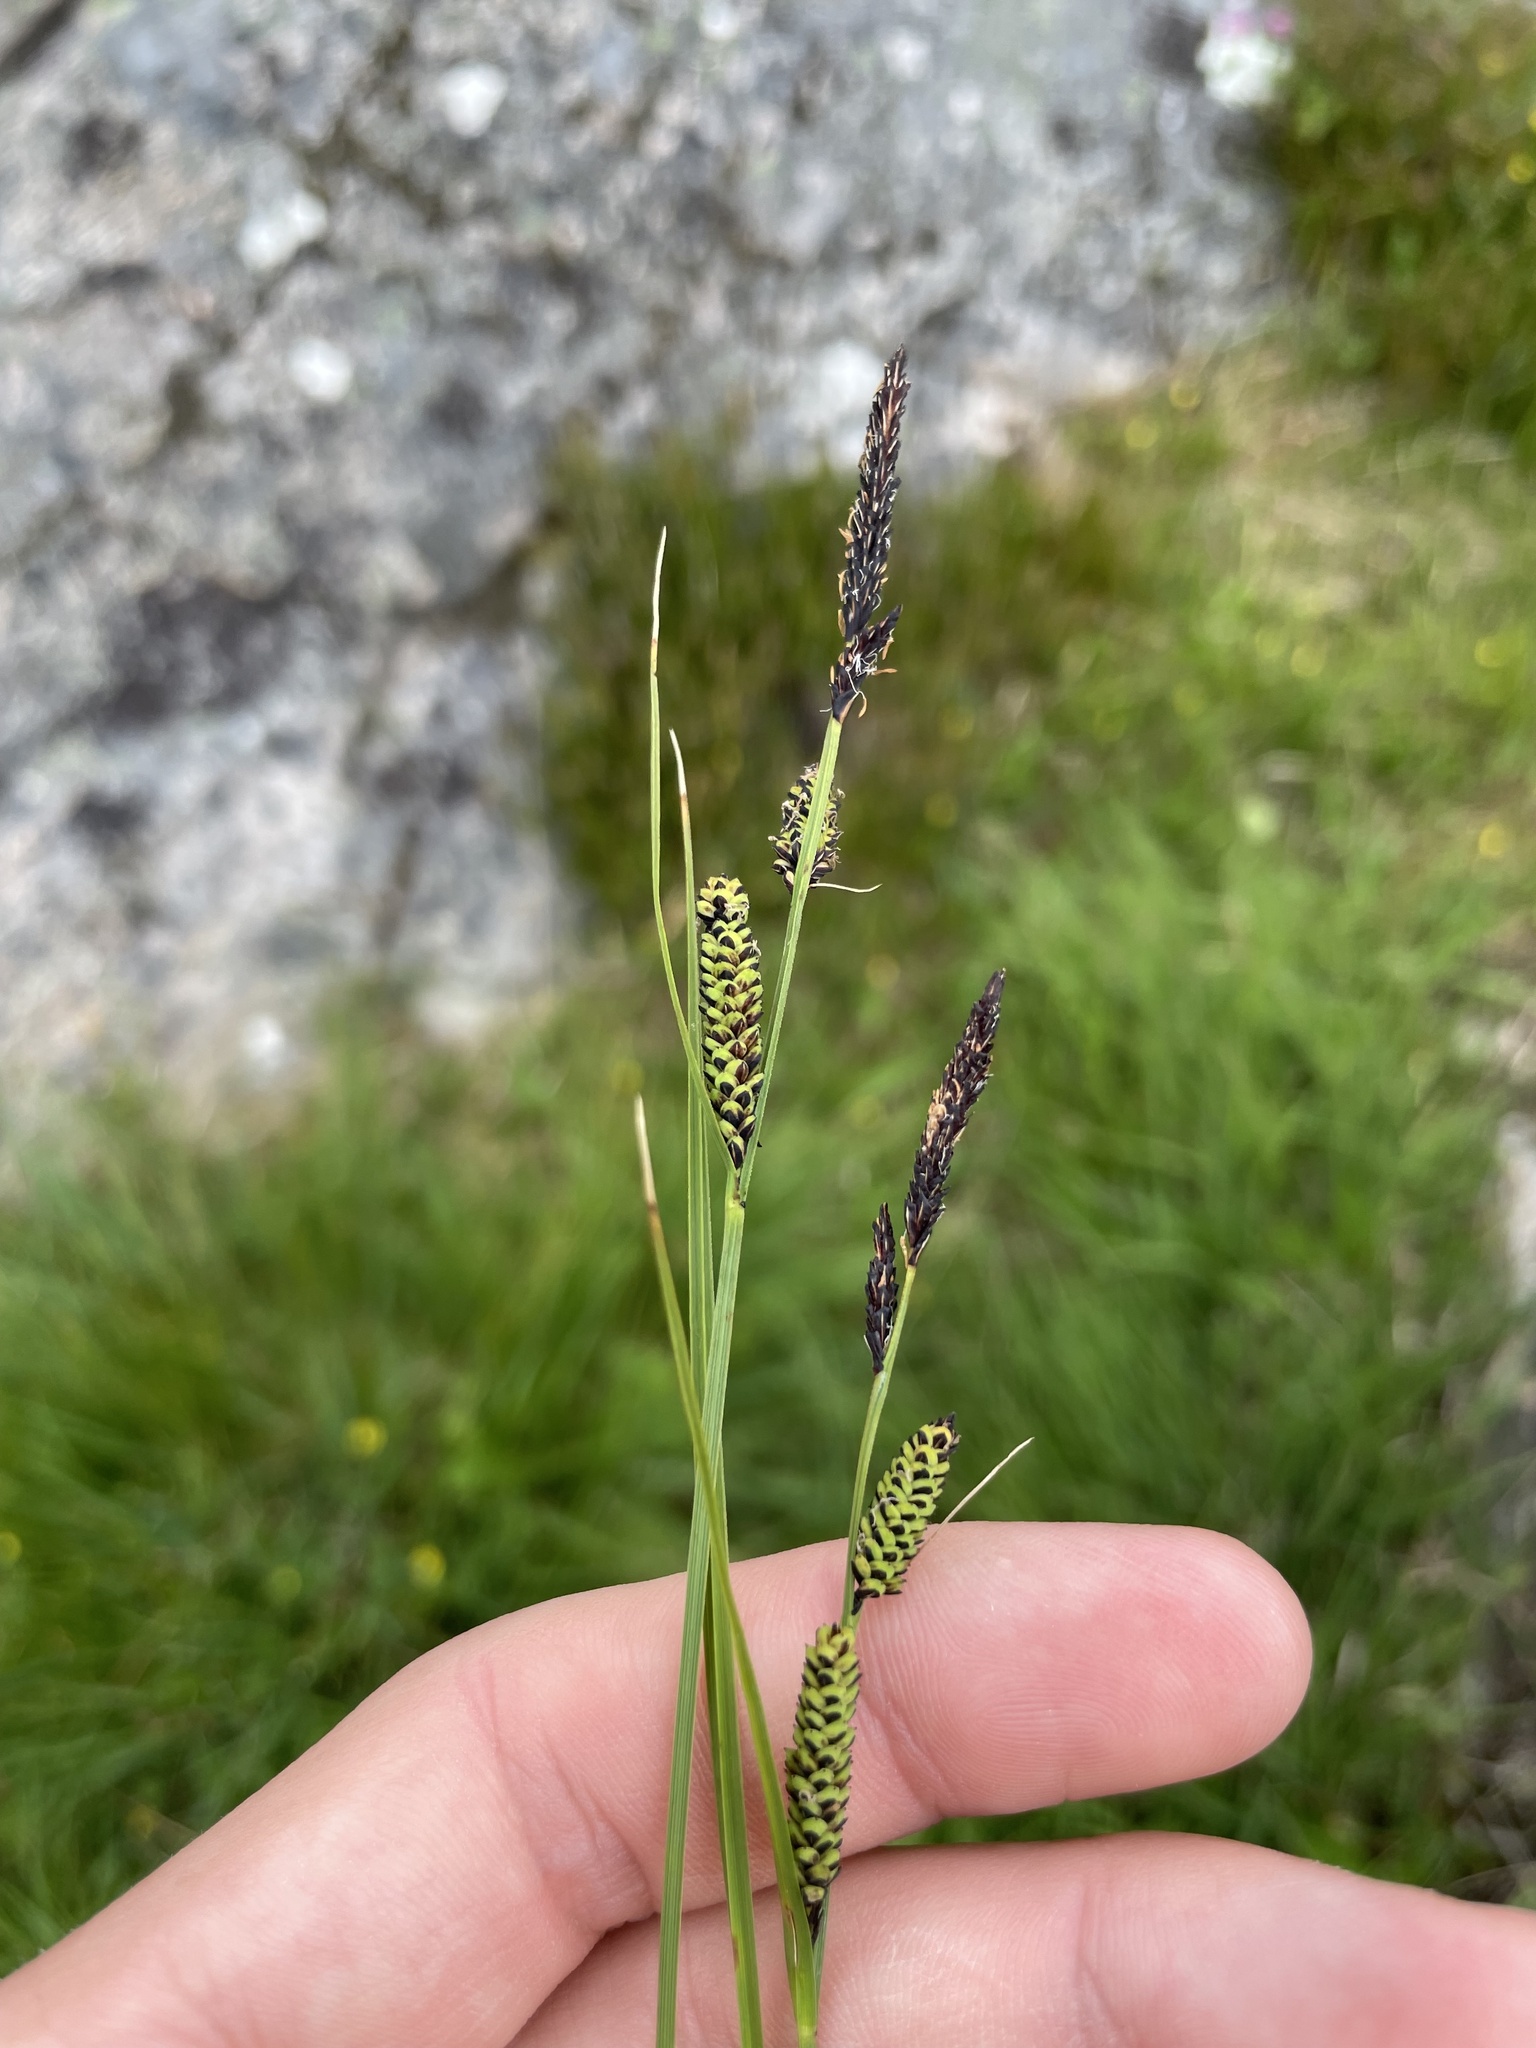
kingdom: Plantae
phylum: Tracheophyta
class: Liliopsida
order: Poales
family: Cyperaceae
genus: Carex
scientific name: Carex nigra
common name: Common sedge
